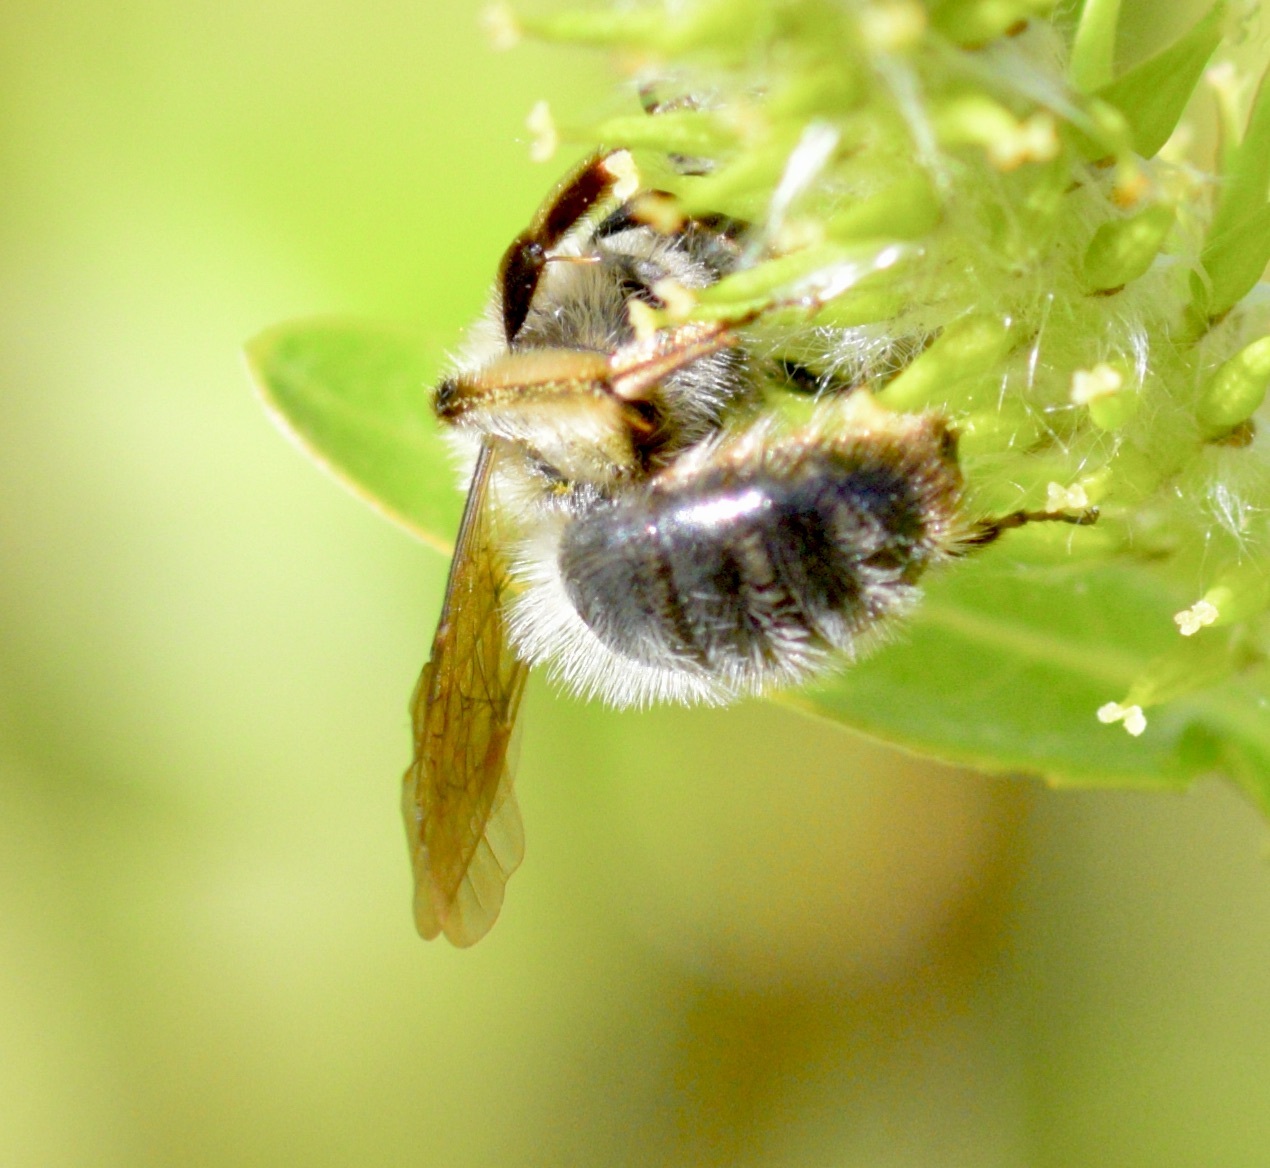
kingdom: Animalia
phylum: Arthropoda
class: Insecta
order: Hymenoptera
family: Andrenidae
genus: Andrena
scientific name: Andrena frigida
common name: Frigid mining bee
